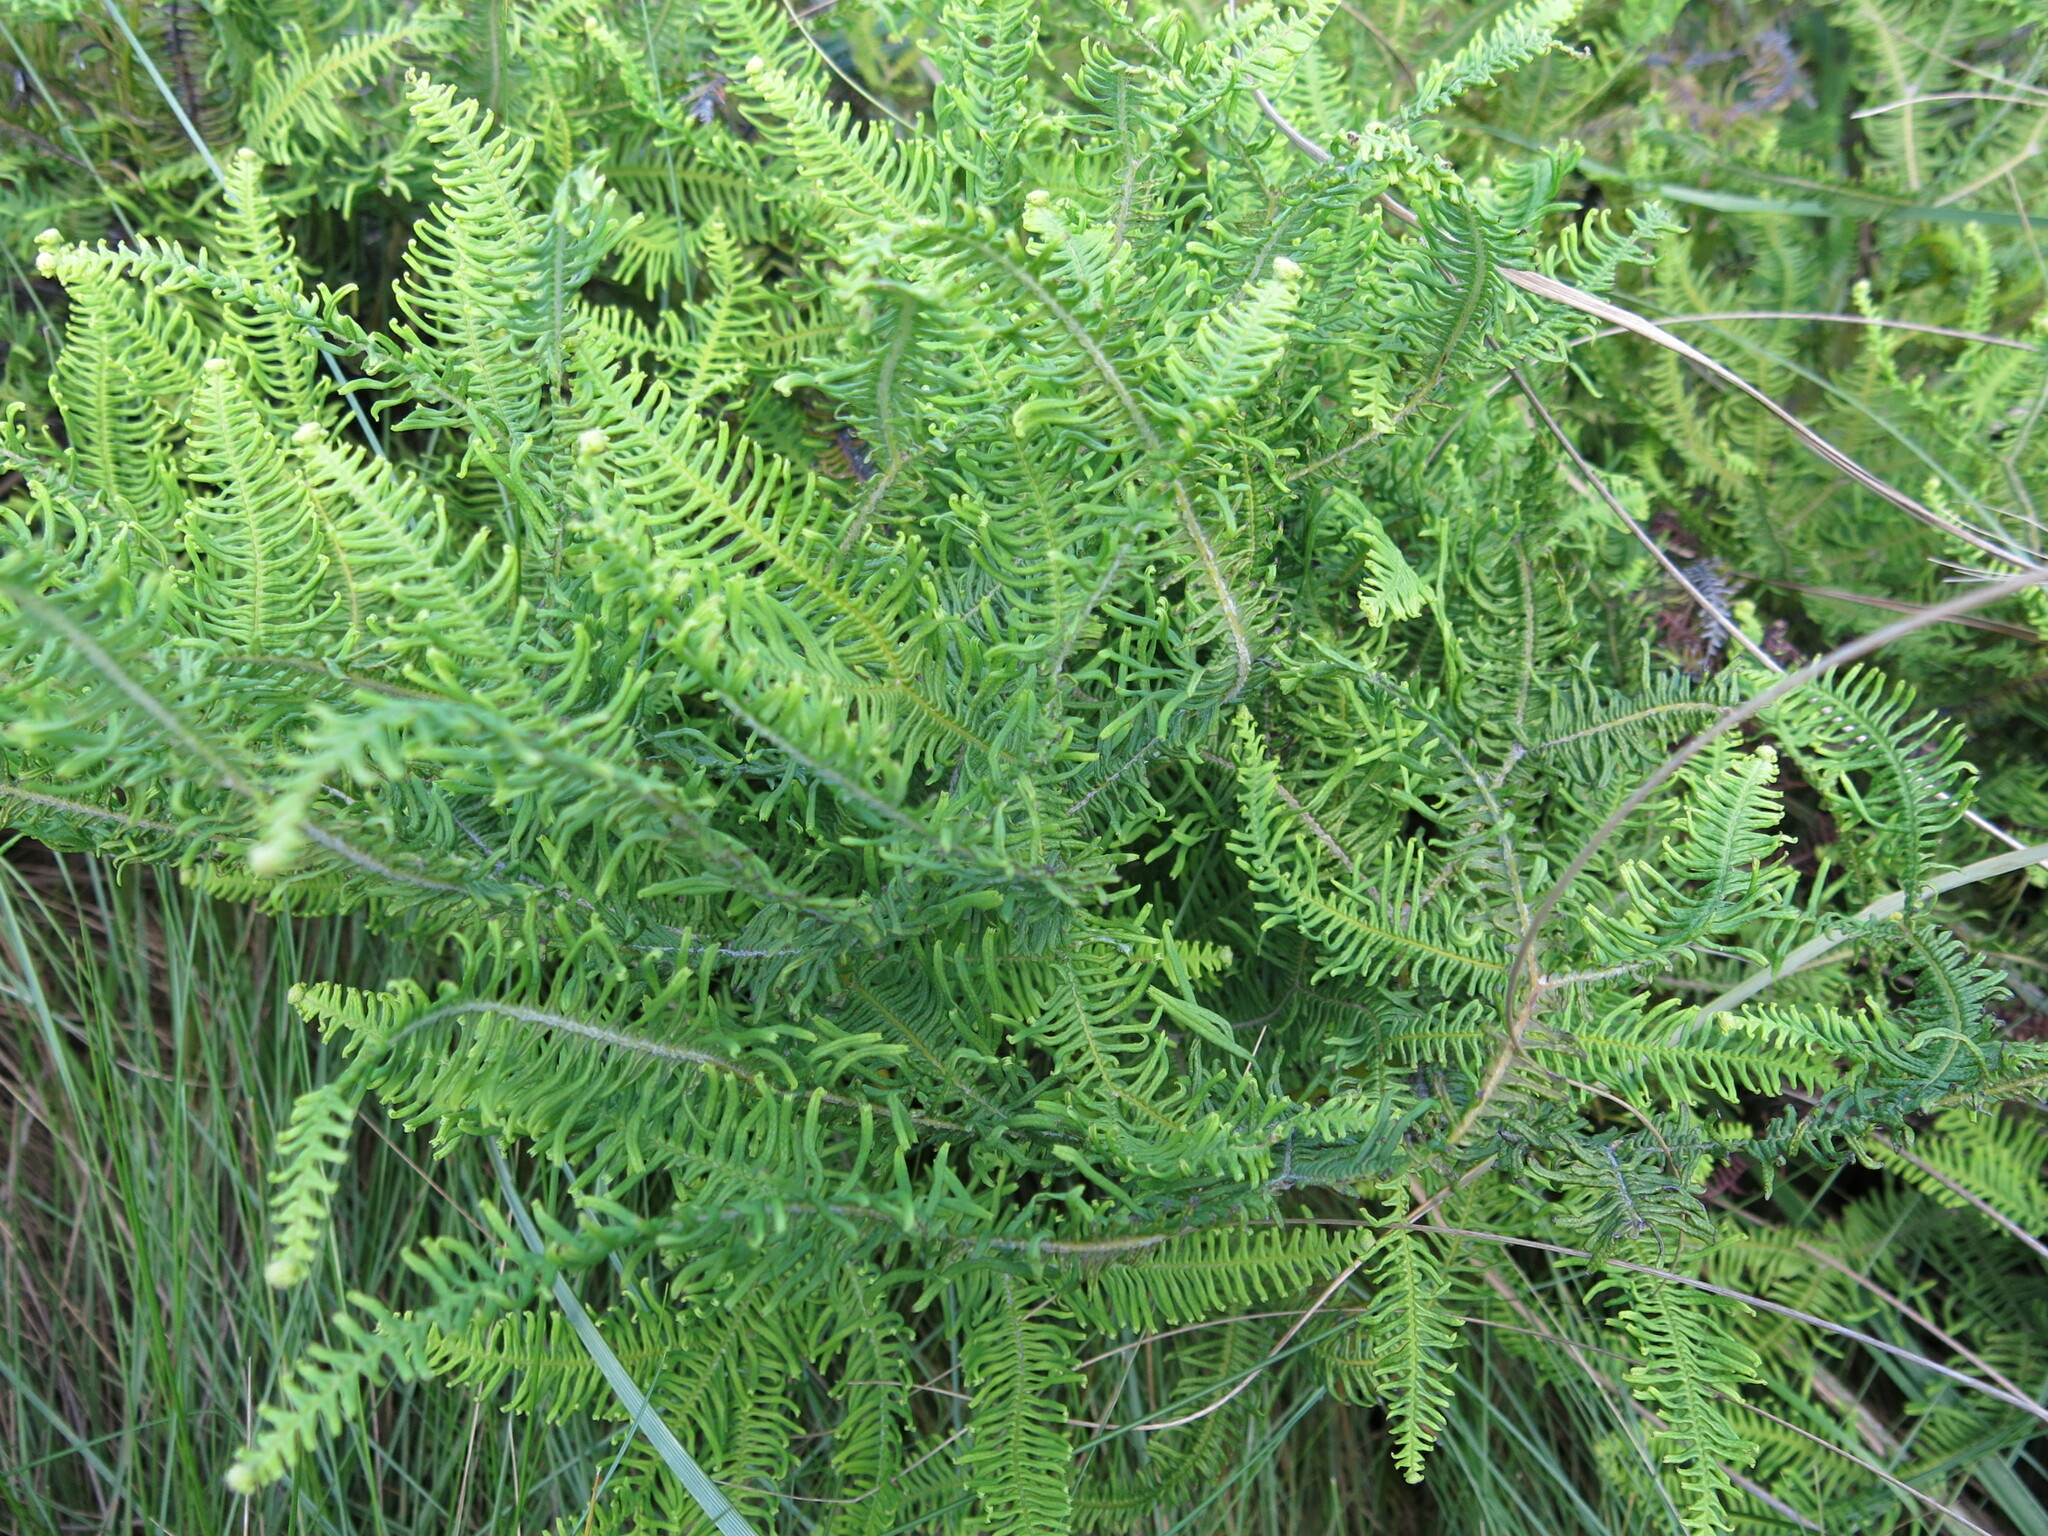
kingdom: Plantae
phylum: Tracheophyta
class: Polypodiopsida
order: Gleicheniales
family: Gleicheniaceae
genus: Sticherus
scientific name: Sticherus umbraculifer
